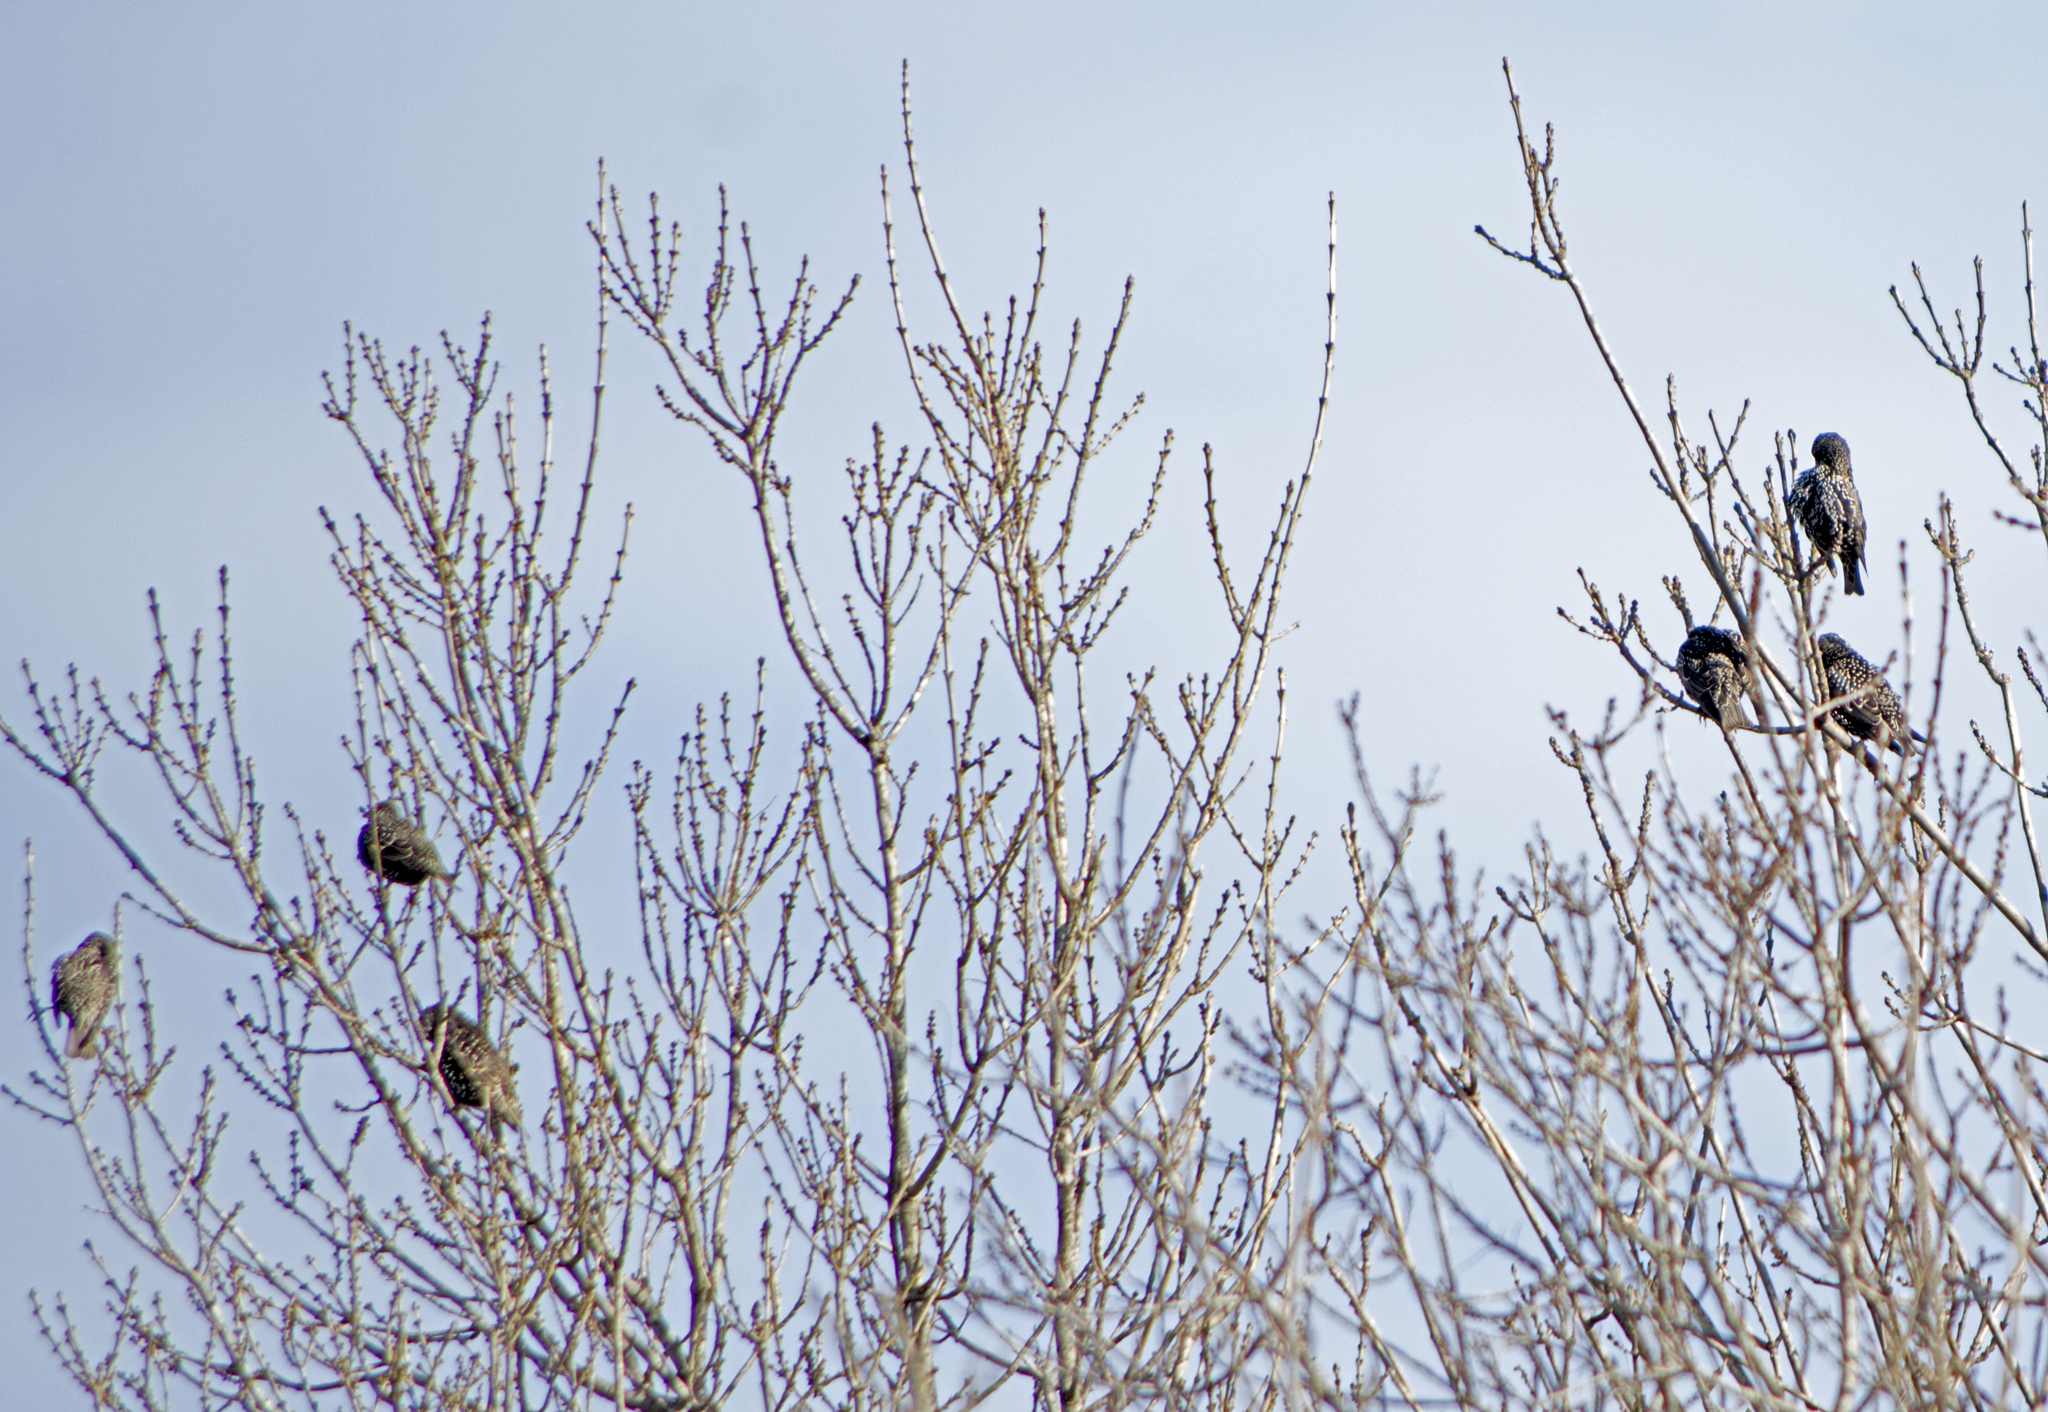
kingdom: Animalia
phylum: Chordata
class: Aves
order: Passeriformes
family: Sturnidae
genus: Sturnus
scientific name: Sturnus vulgaris
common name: Common starling
